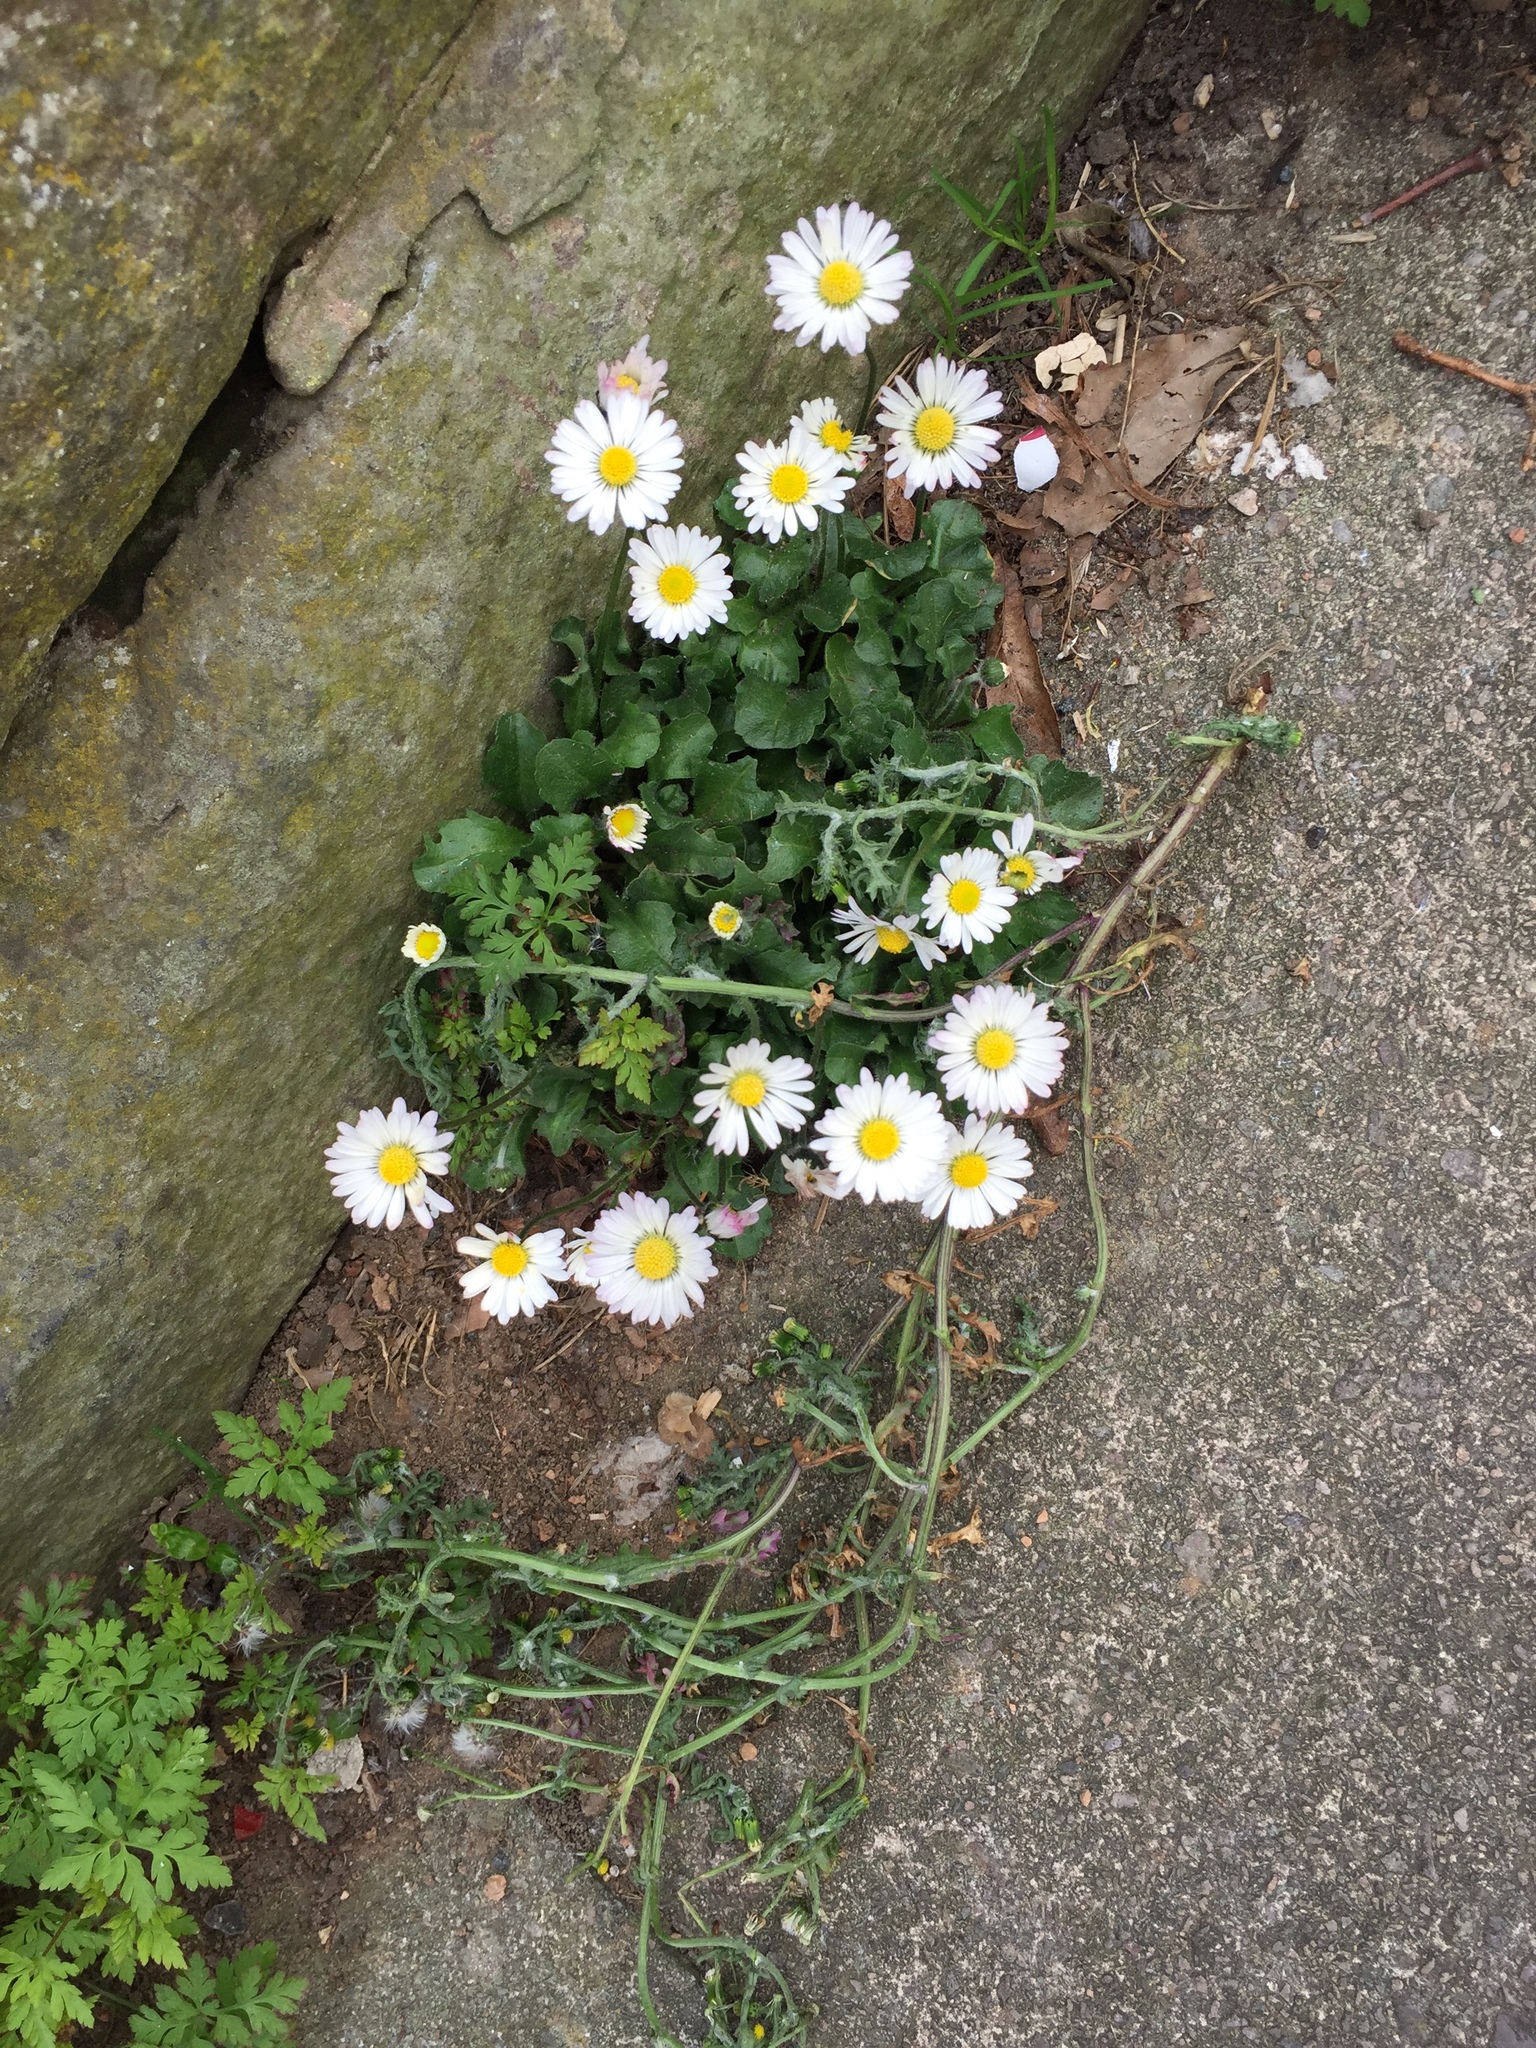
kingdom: Plantae
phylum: Tracheophyta
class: Magnoliopsida
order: Asterales
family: Asteraceae
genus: Bellis
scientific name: Bellis perennis
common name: Lawndaisy
